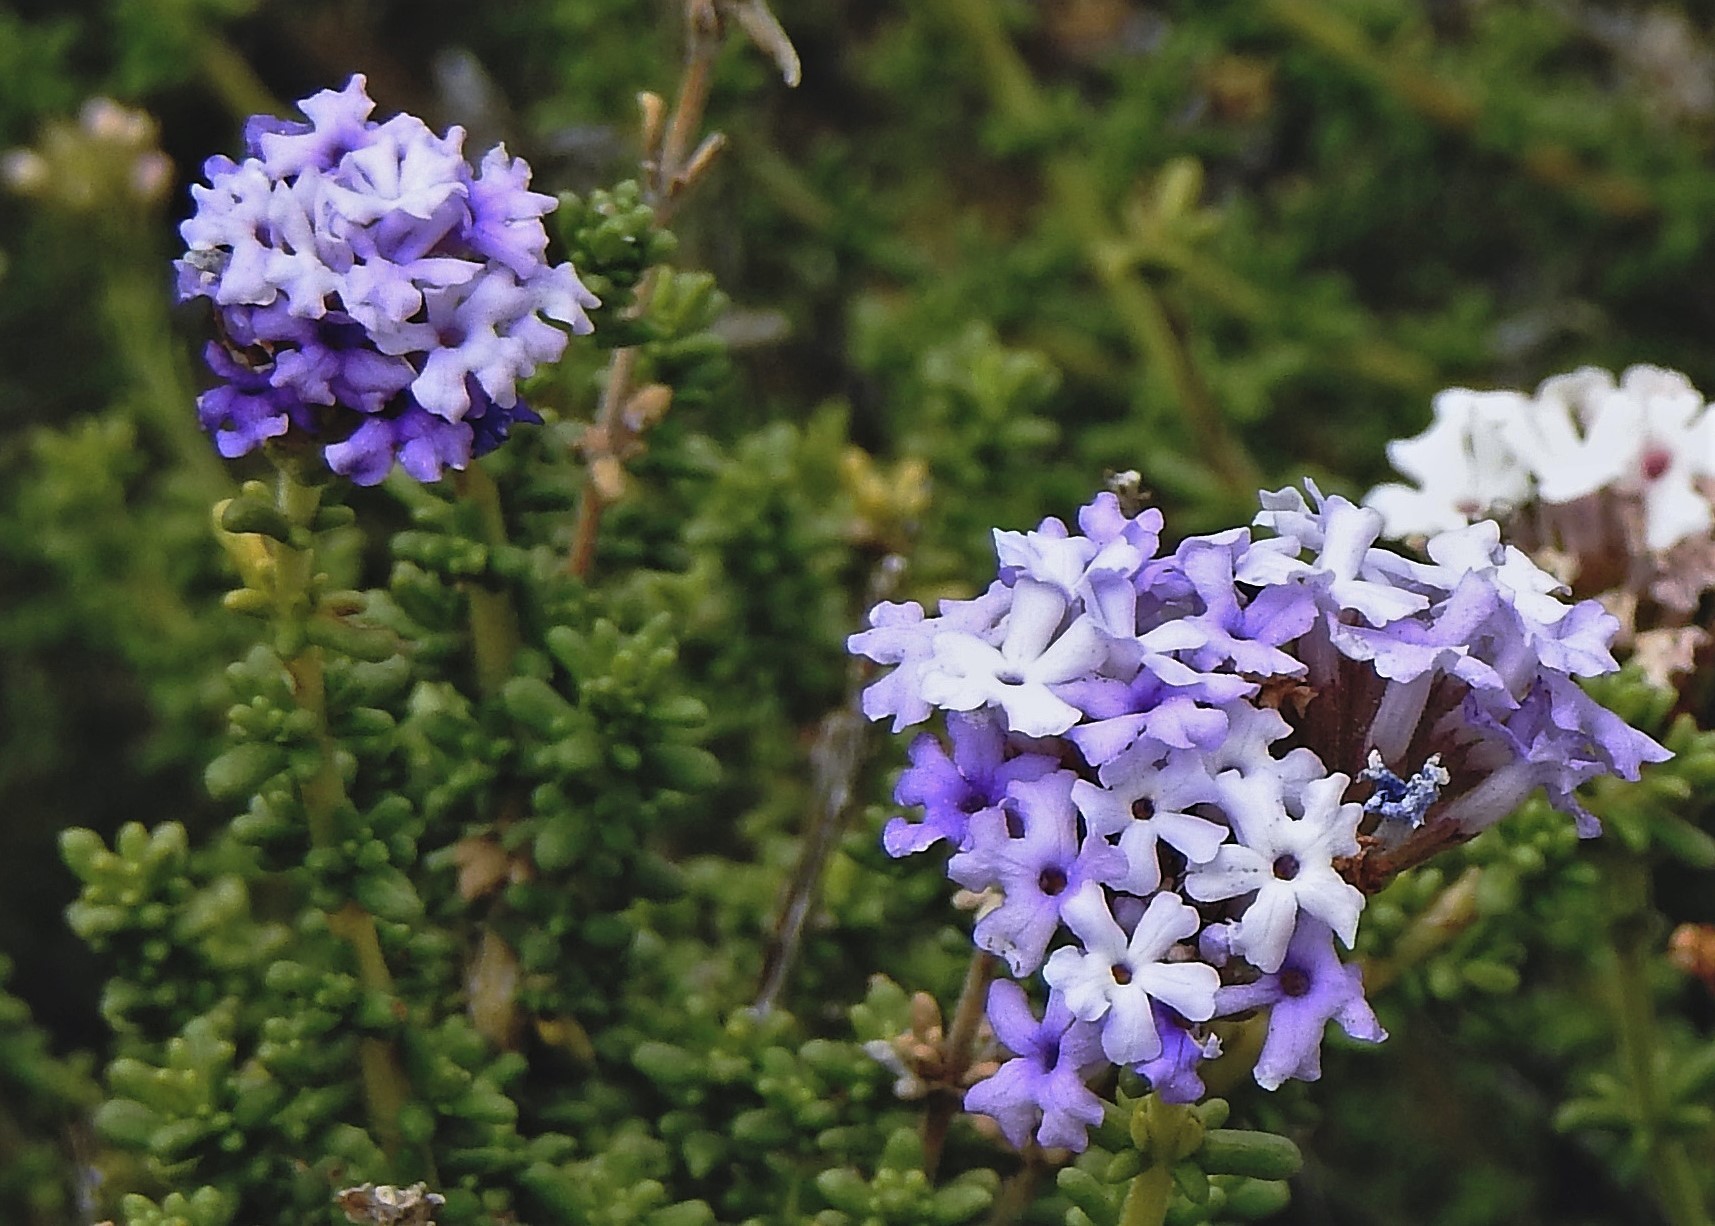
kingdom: Plantae
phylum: Tracheophyta
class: Magnoliopsida
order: Lamiales
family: Verbenaceae
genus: Junellia
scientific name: Junellia succulentifolia
